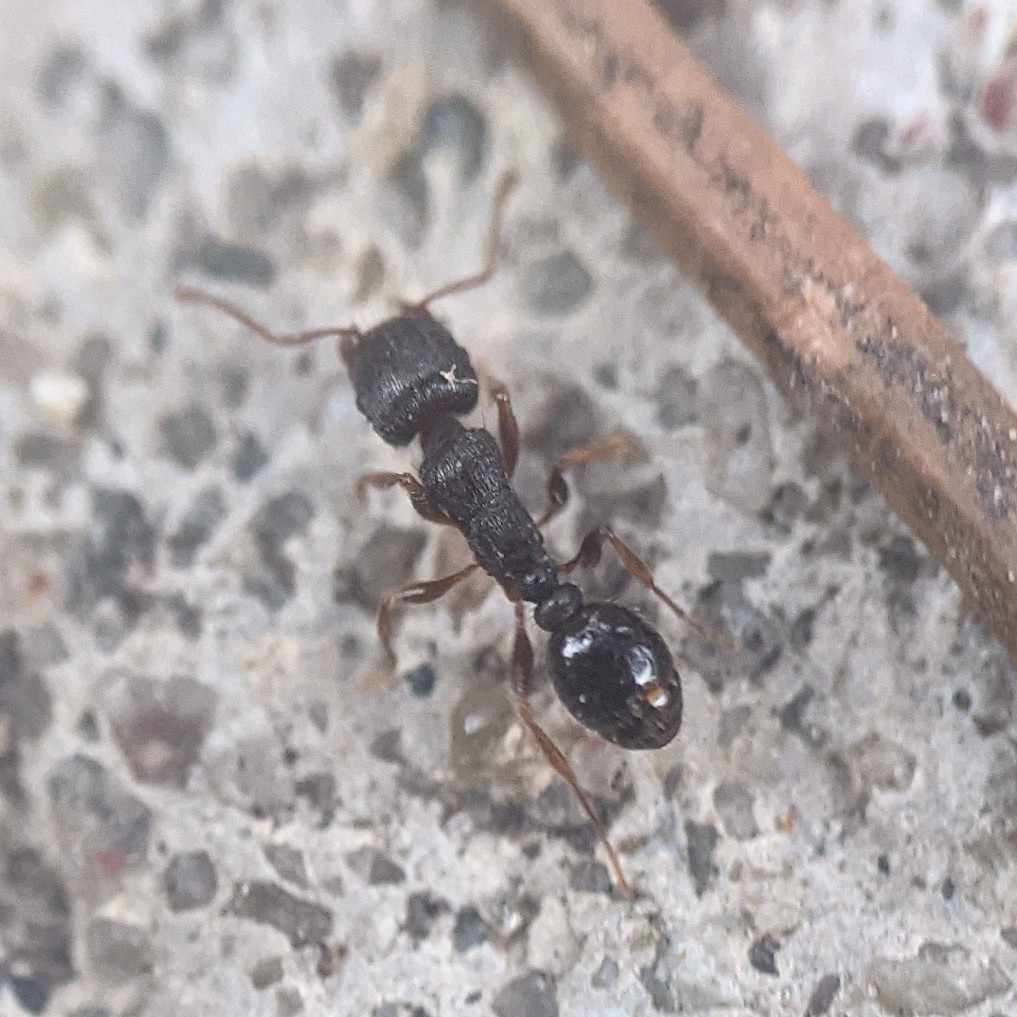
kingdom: Animalia
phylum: Arthropoda
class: Insecta
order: Hymenoptera
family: Formicidae
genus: Tetramorium
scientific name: Tetramorium immigrans
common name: Pavement ant
